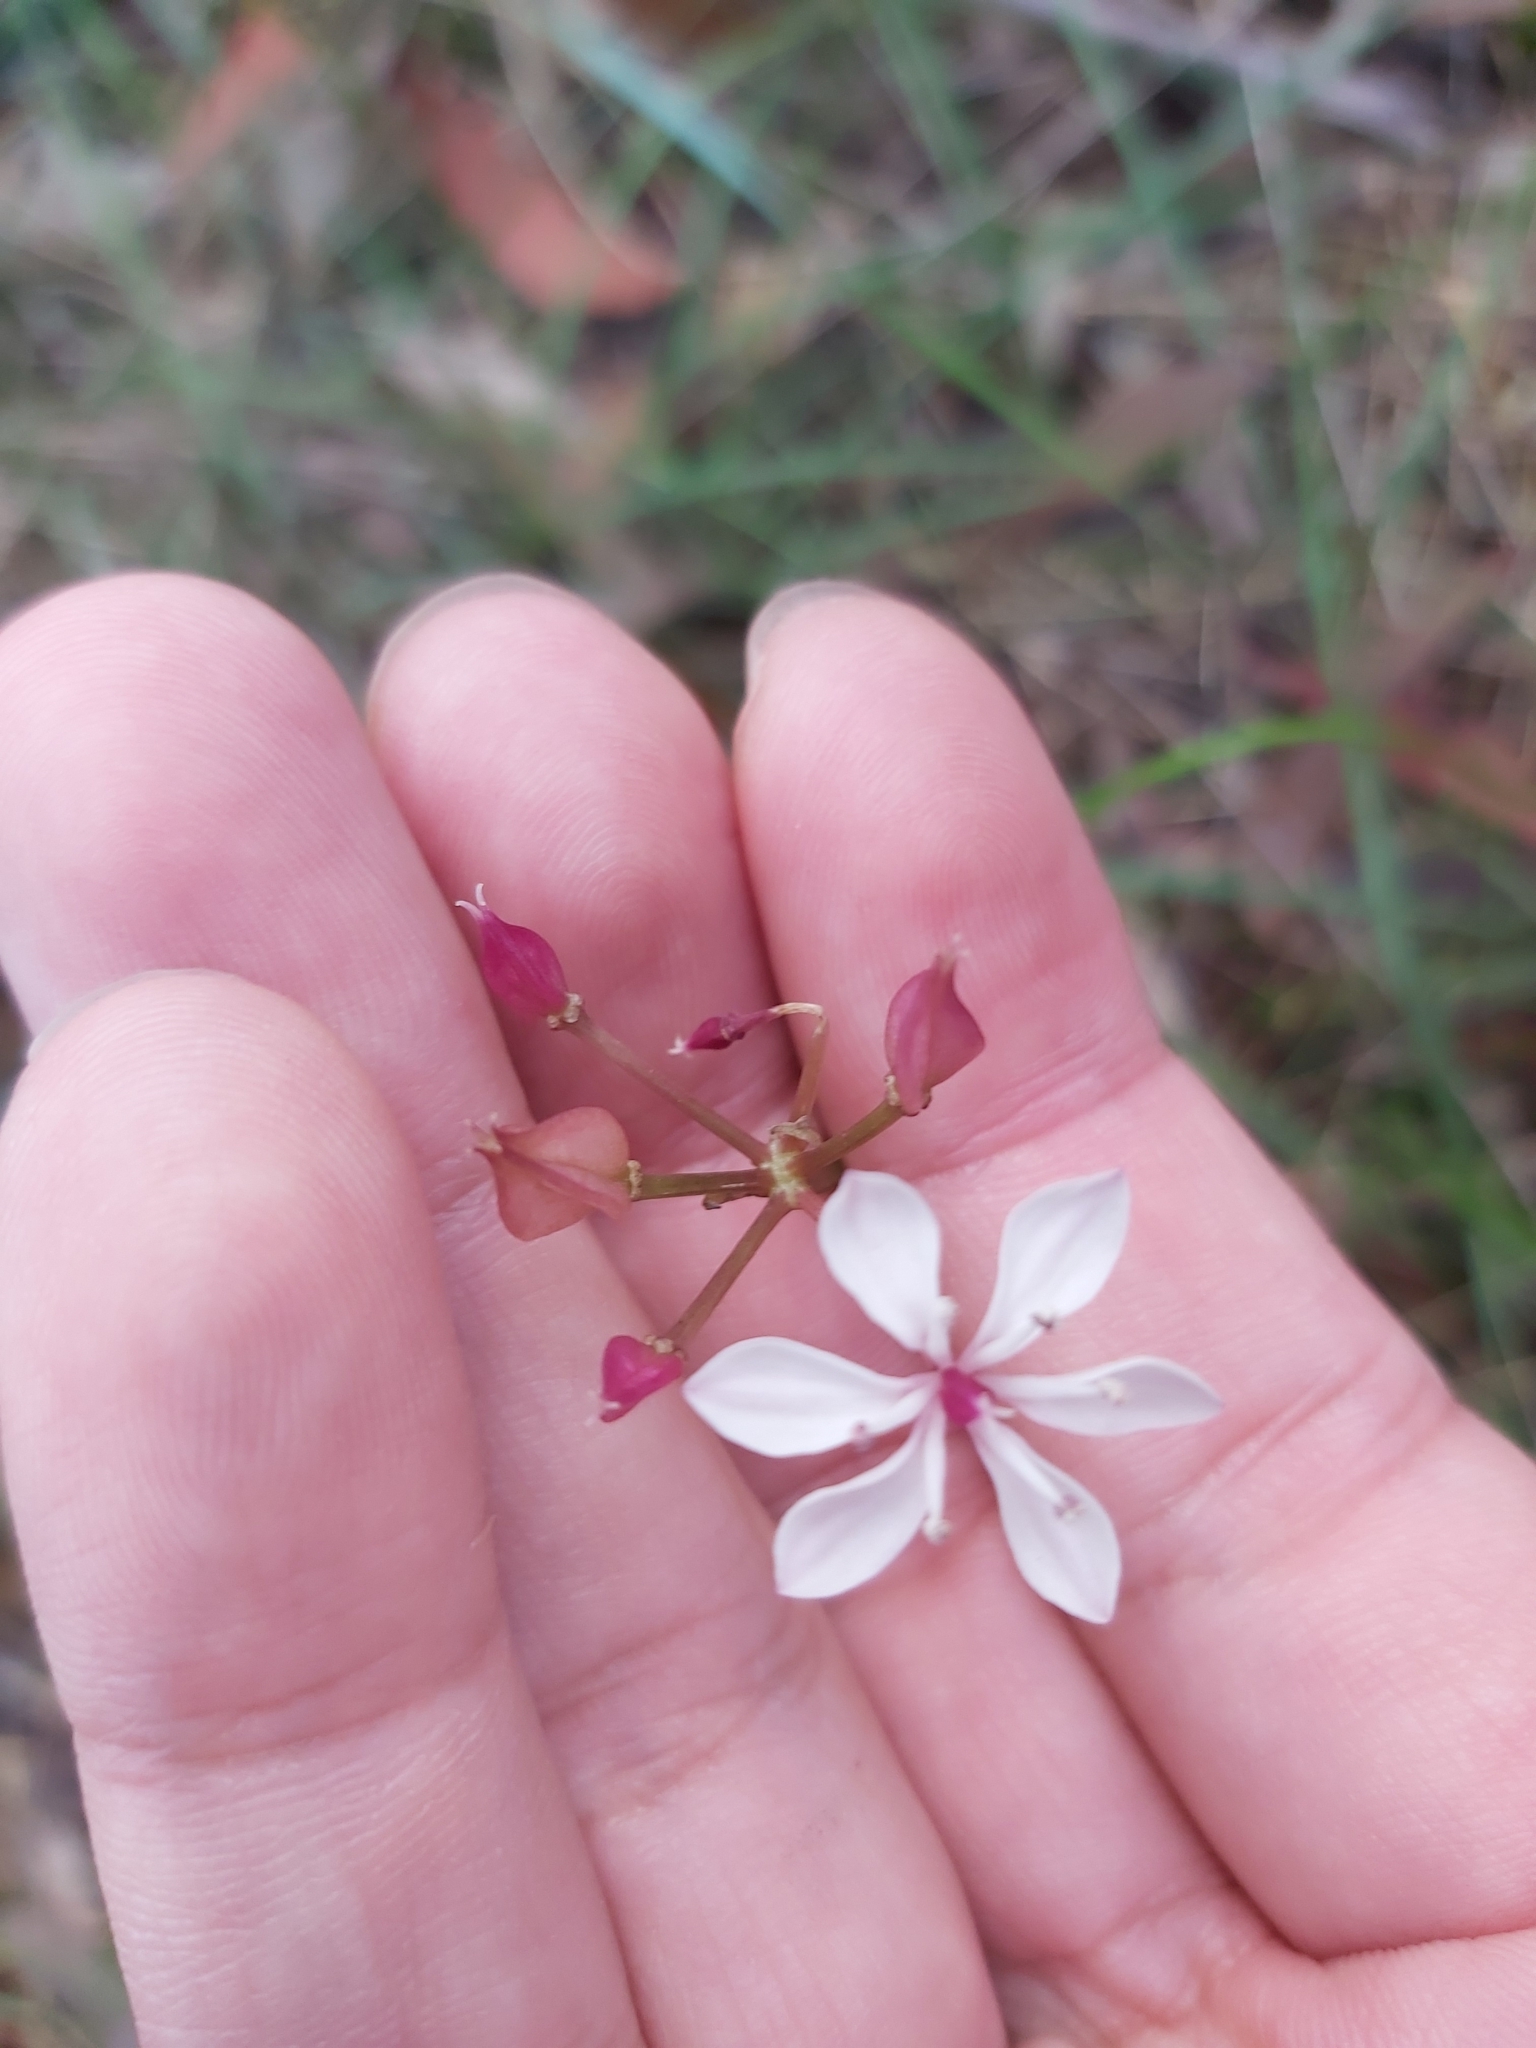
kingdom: Plantae
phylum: Tracheophyta
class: Liliopsida
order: Liliales
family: Colchicaceae
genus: Burchardia
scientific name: Burchardia umbellata
